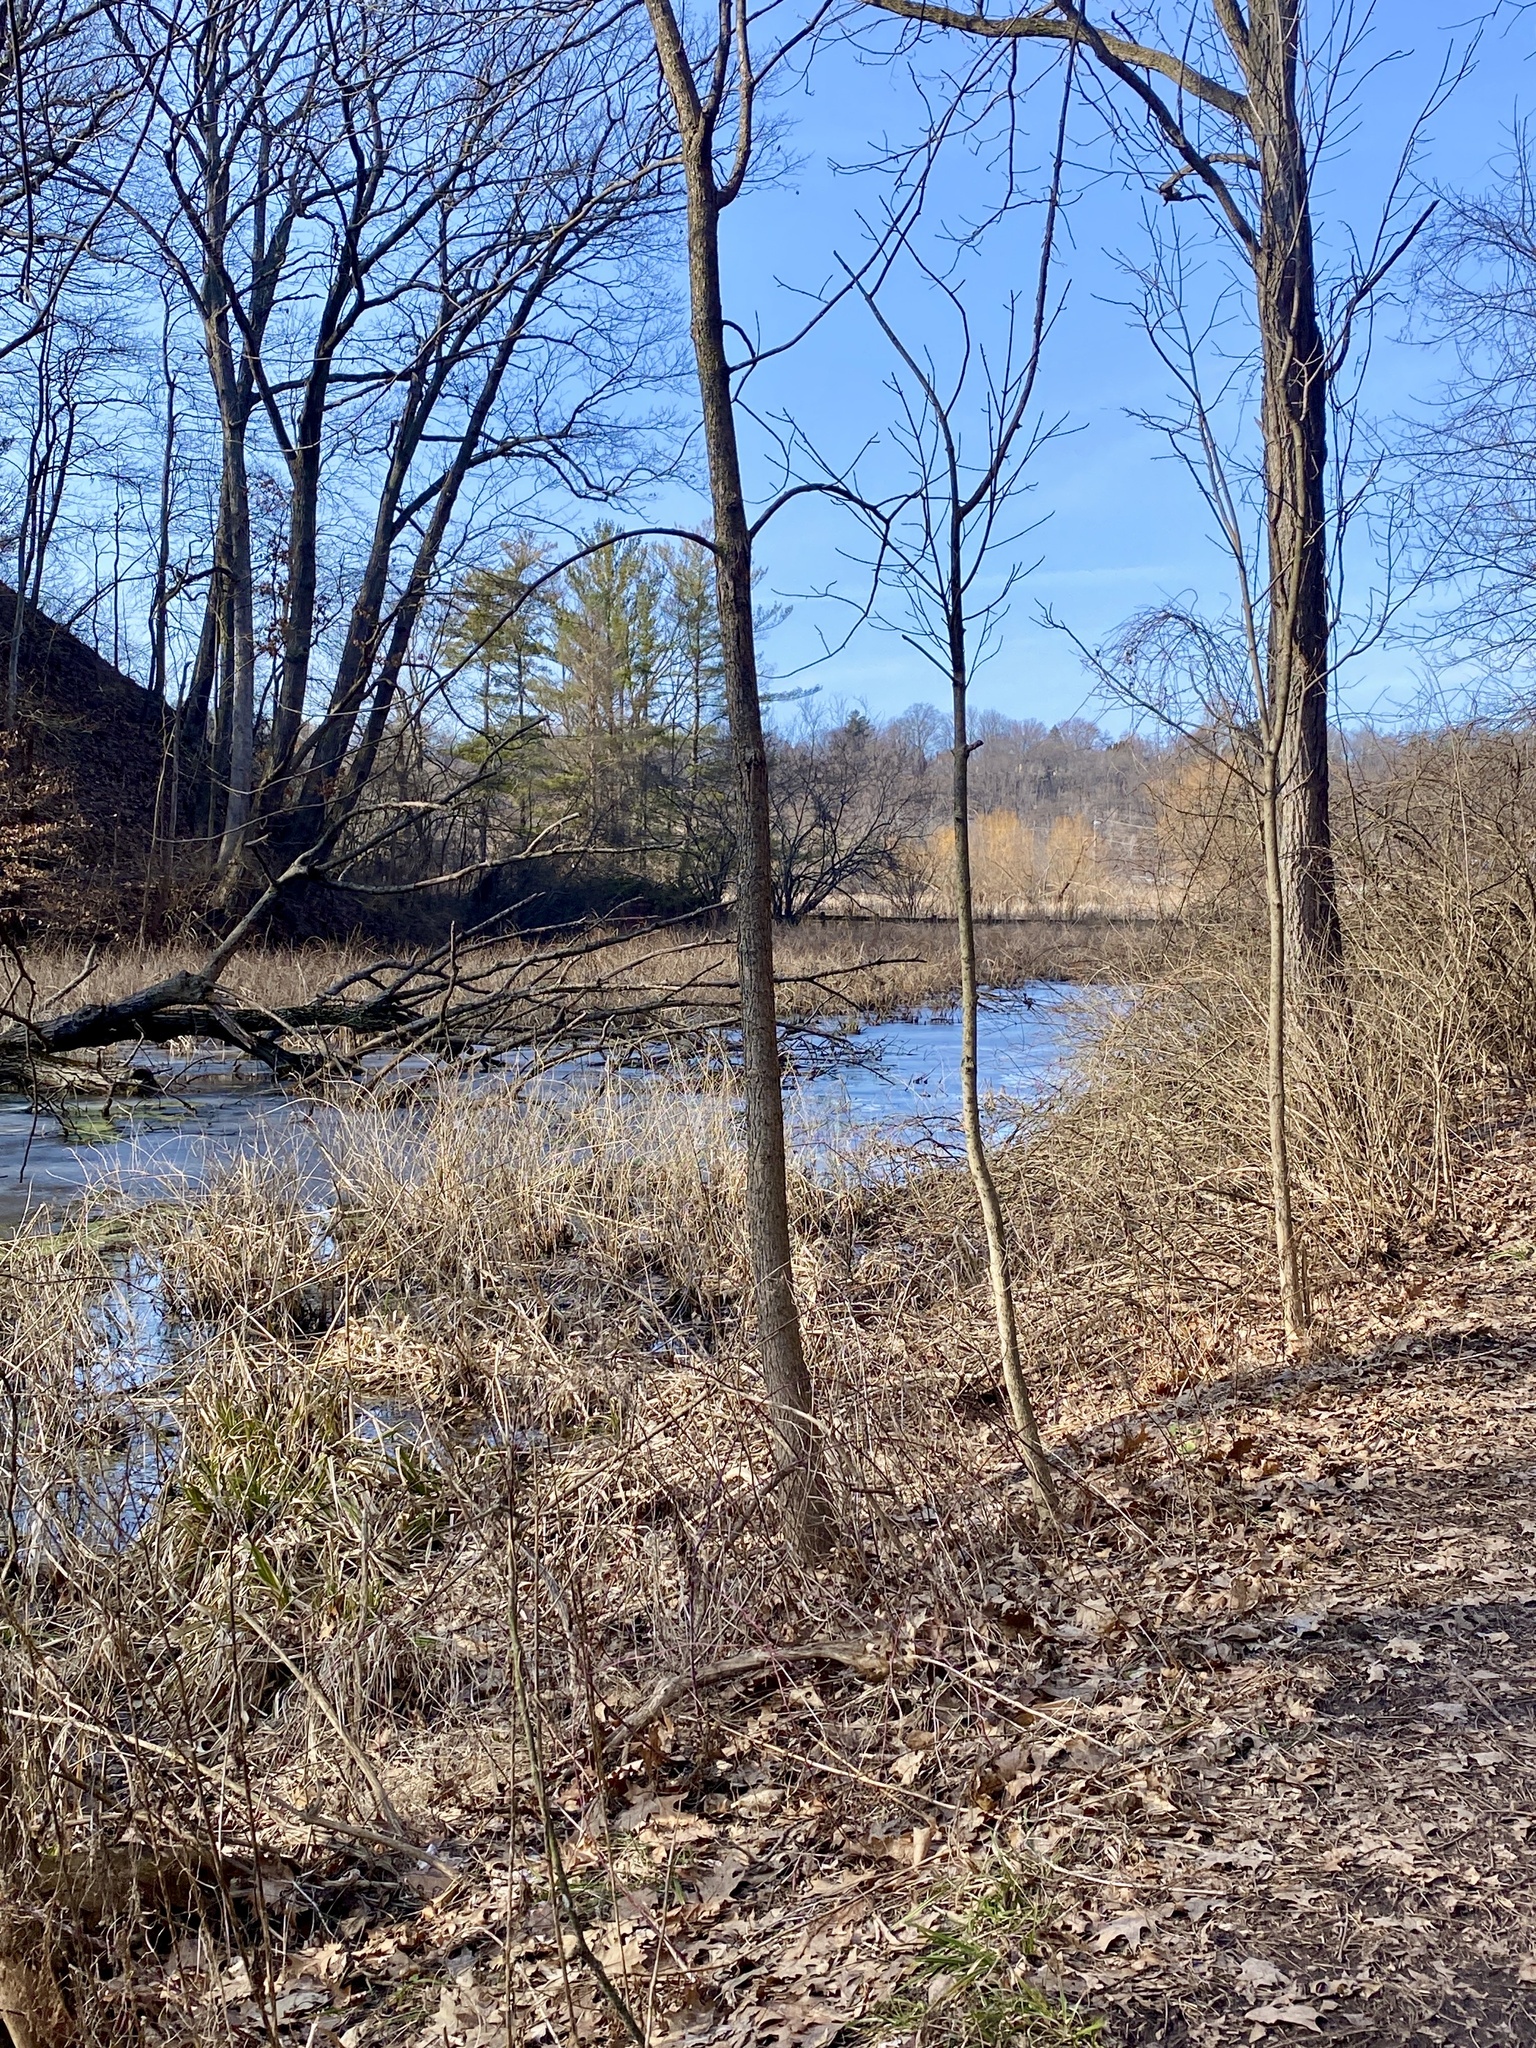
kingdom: Plantae
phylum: Tracheophyta
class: Polypodiopsida
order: Polypodiales
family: Dryopteridaceae
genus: Polystichum
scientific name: Polystichum acrostichoides
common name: Christmas fern
